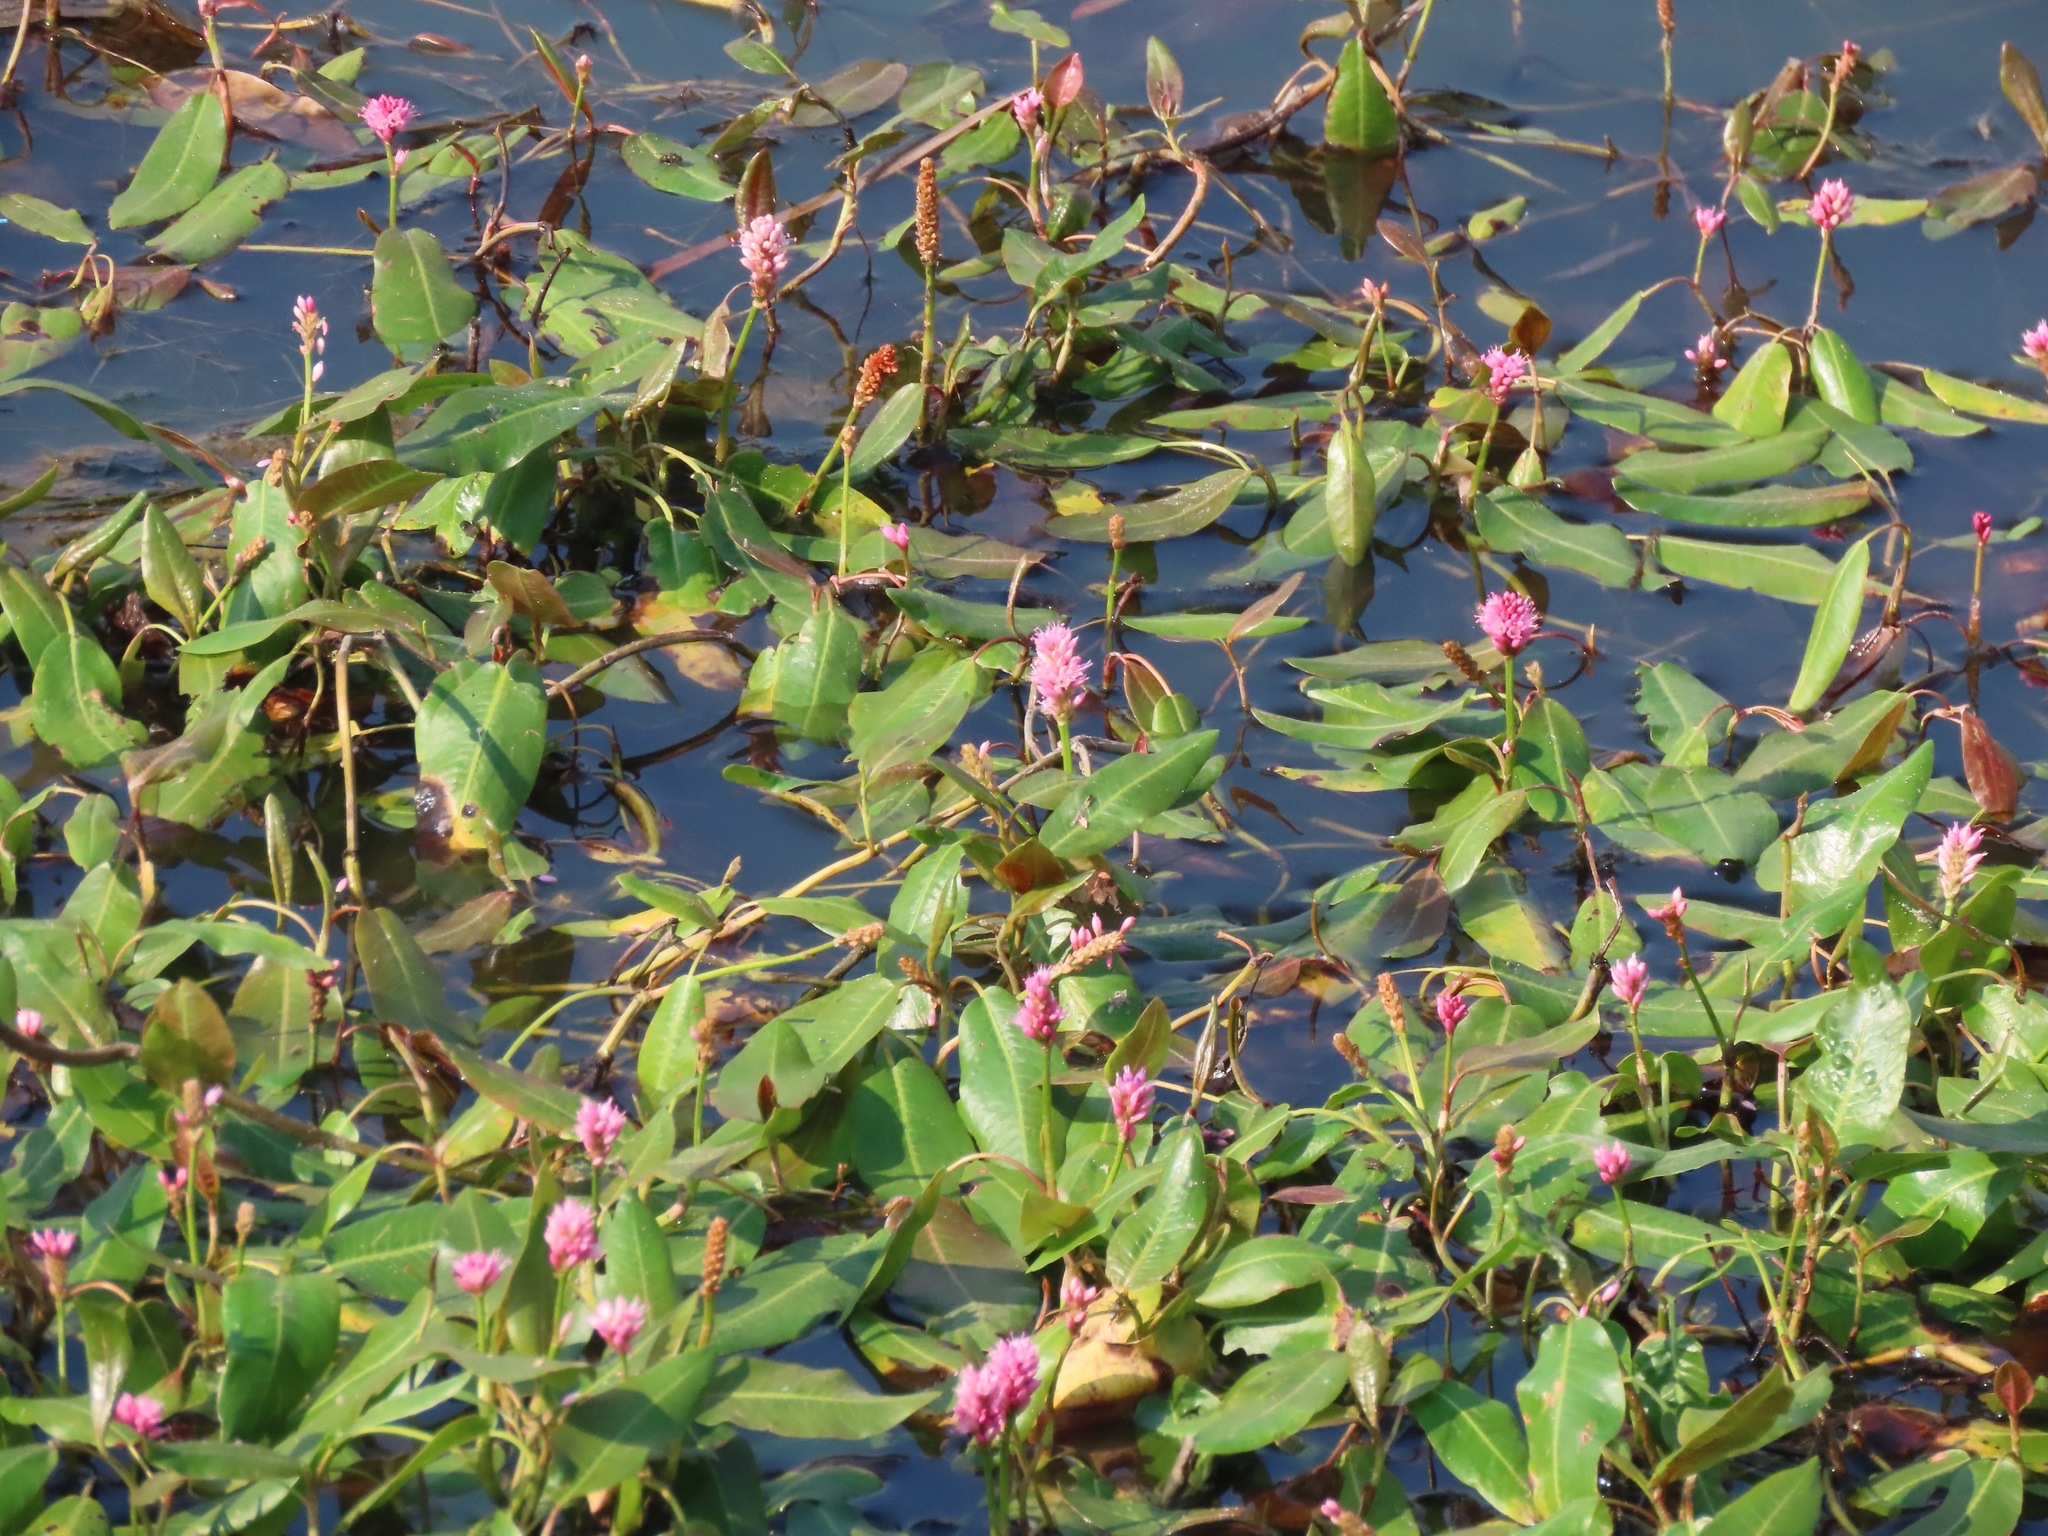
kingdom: Plantae
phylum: Tracheophyta
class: Magnoliopsida
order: Caryophyllales
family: Polygonaceae
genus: Persicaria
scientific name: Persicaria amphibia
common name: Amphibious bistort
